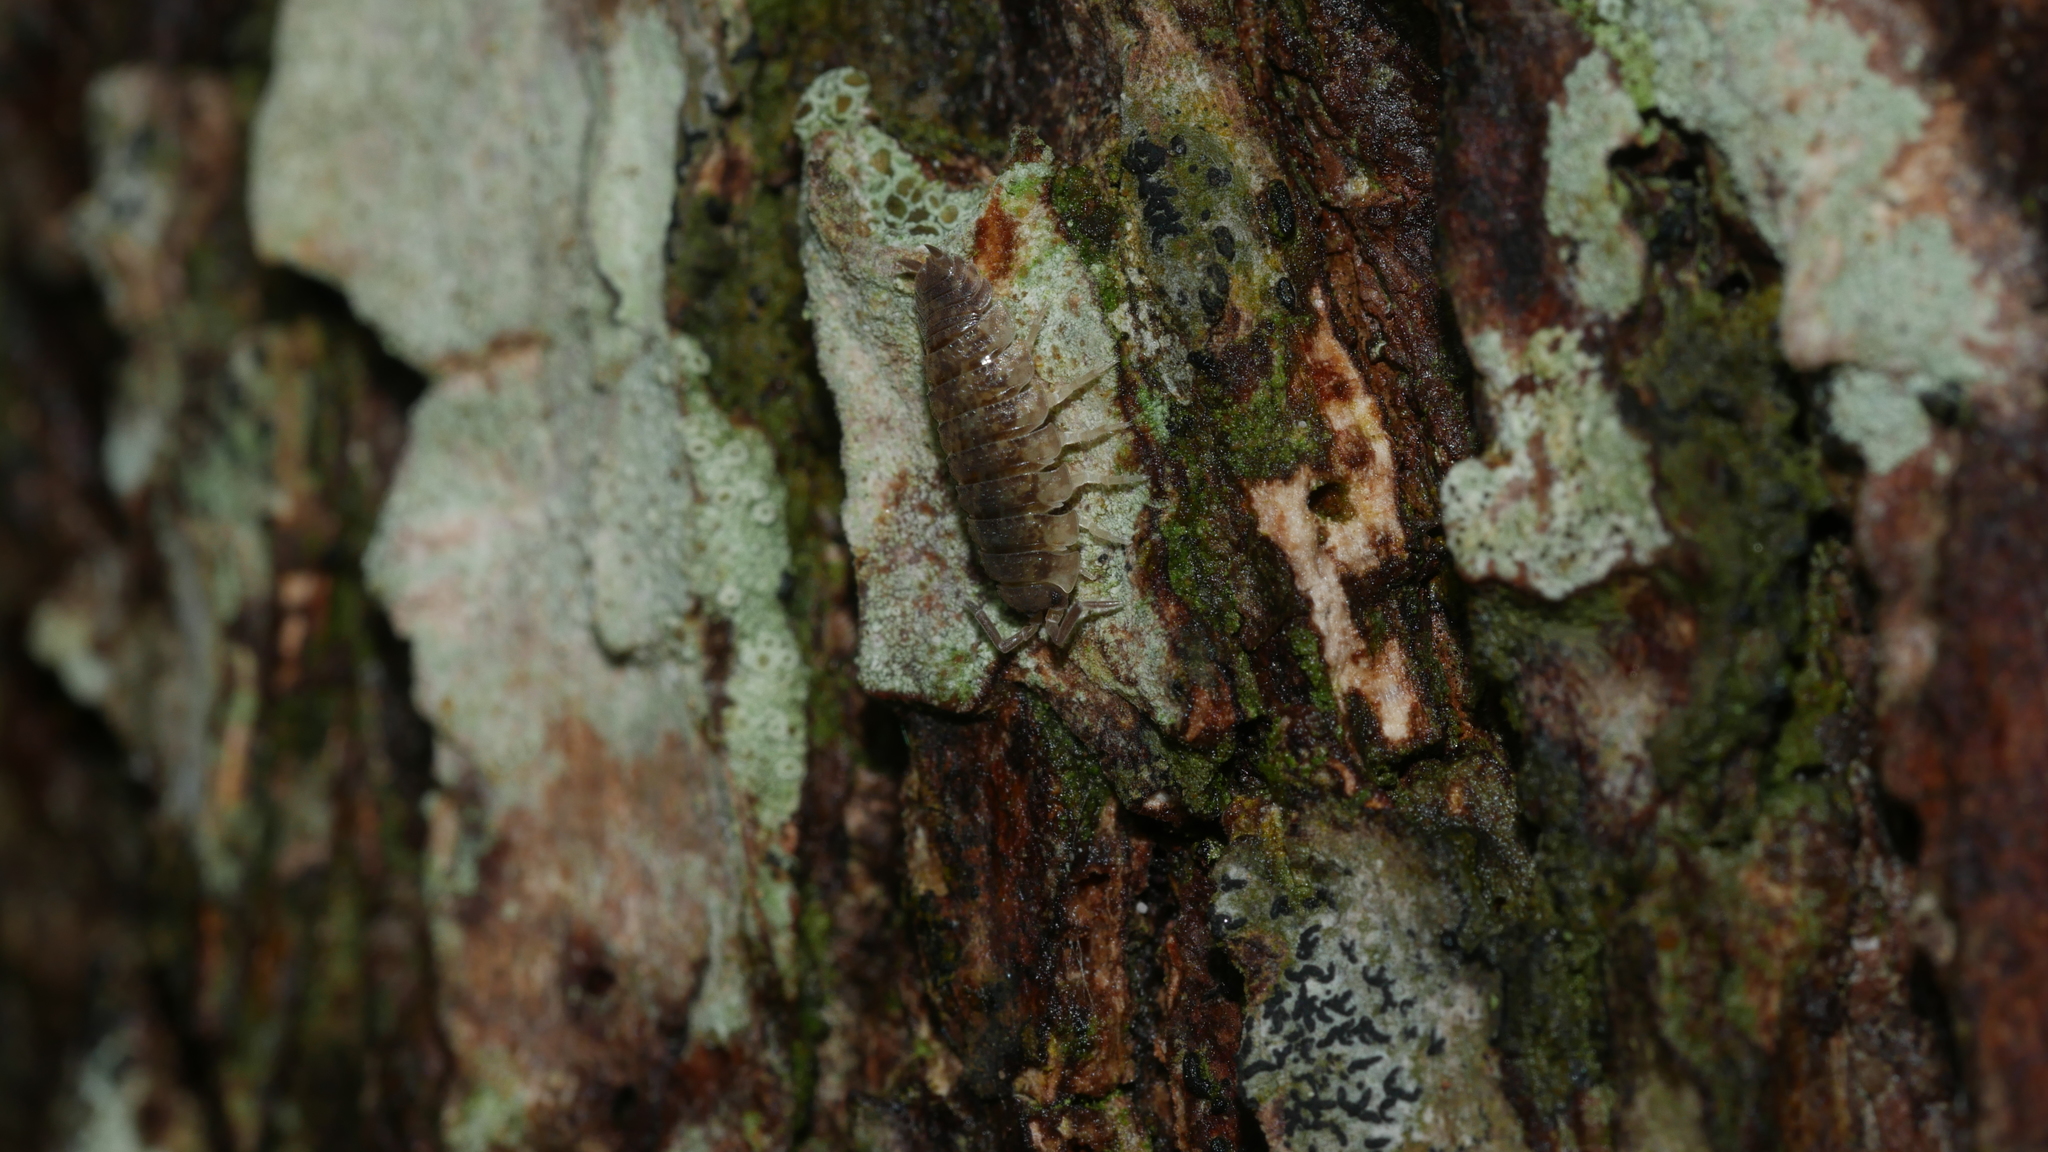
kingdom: Animalia
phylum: Arthropoda
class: Malacostraca
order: Isopoda
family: Porcellionidae
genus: Porcellio
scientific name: Porcellio scaber
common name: Common rough woodlouse
